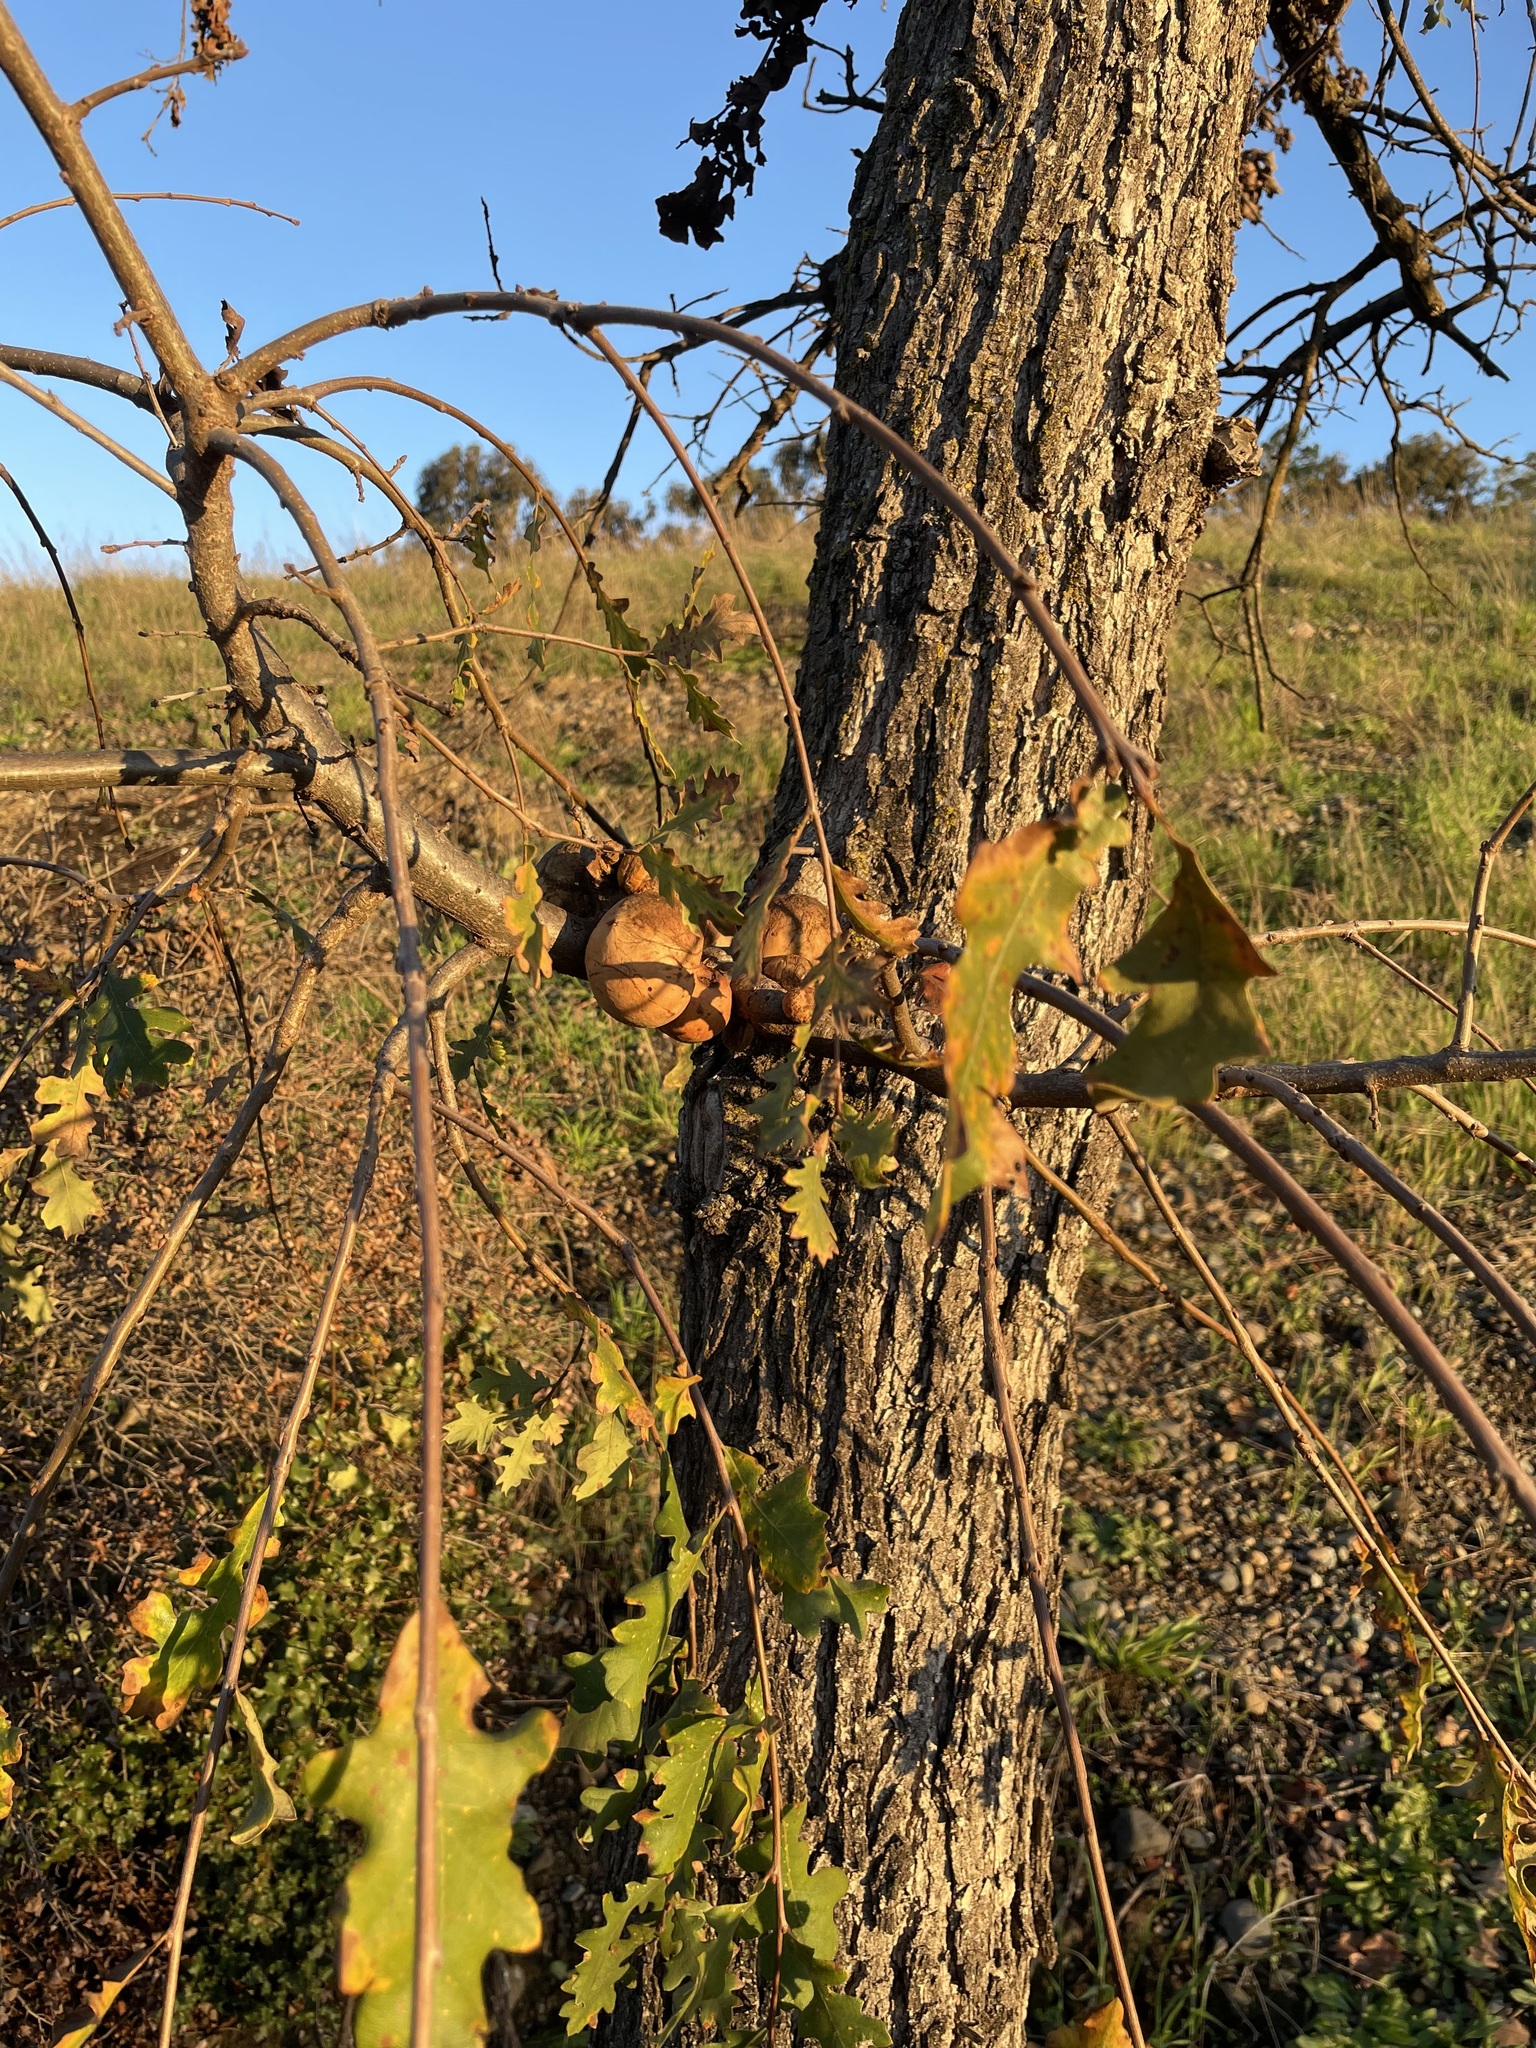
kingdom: Animalia
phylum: Arthropoda
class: Insecta
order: Hymenoptera
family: Cynipidae
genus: Andricus
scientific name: Andricus quercuscalifornicus
